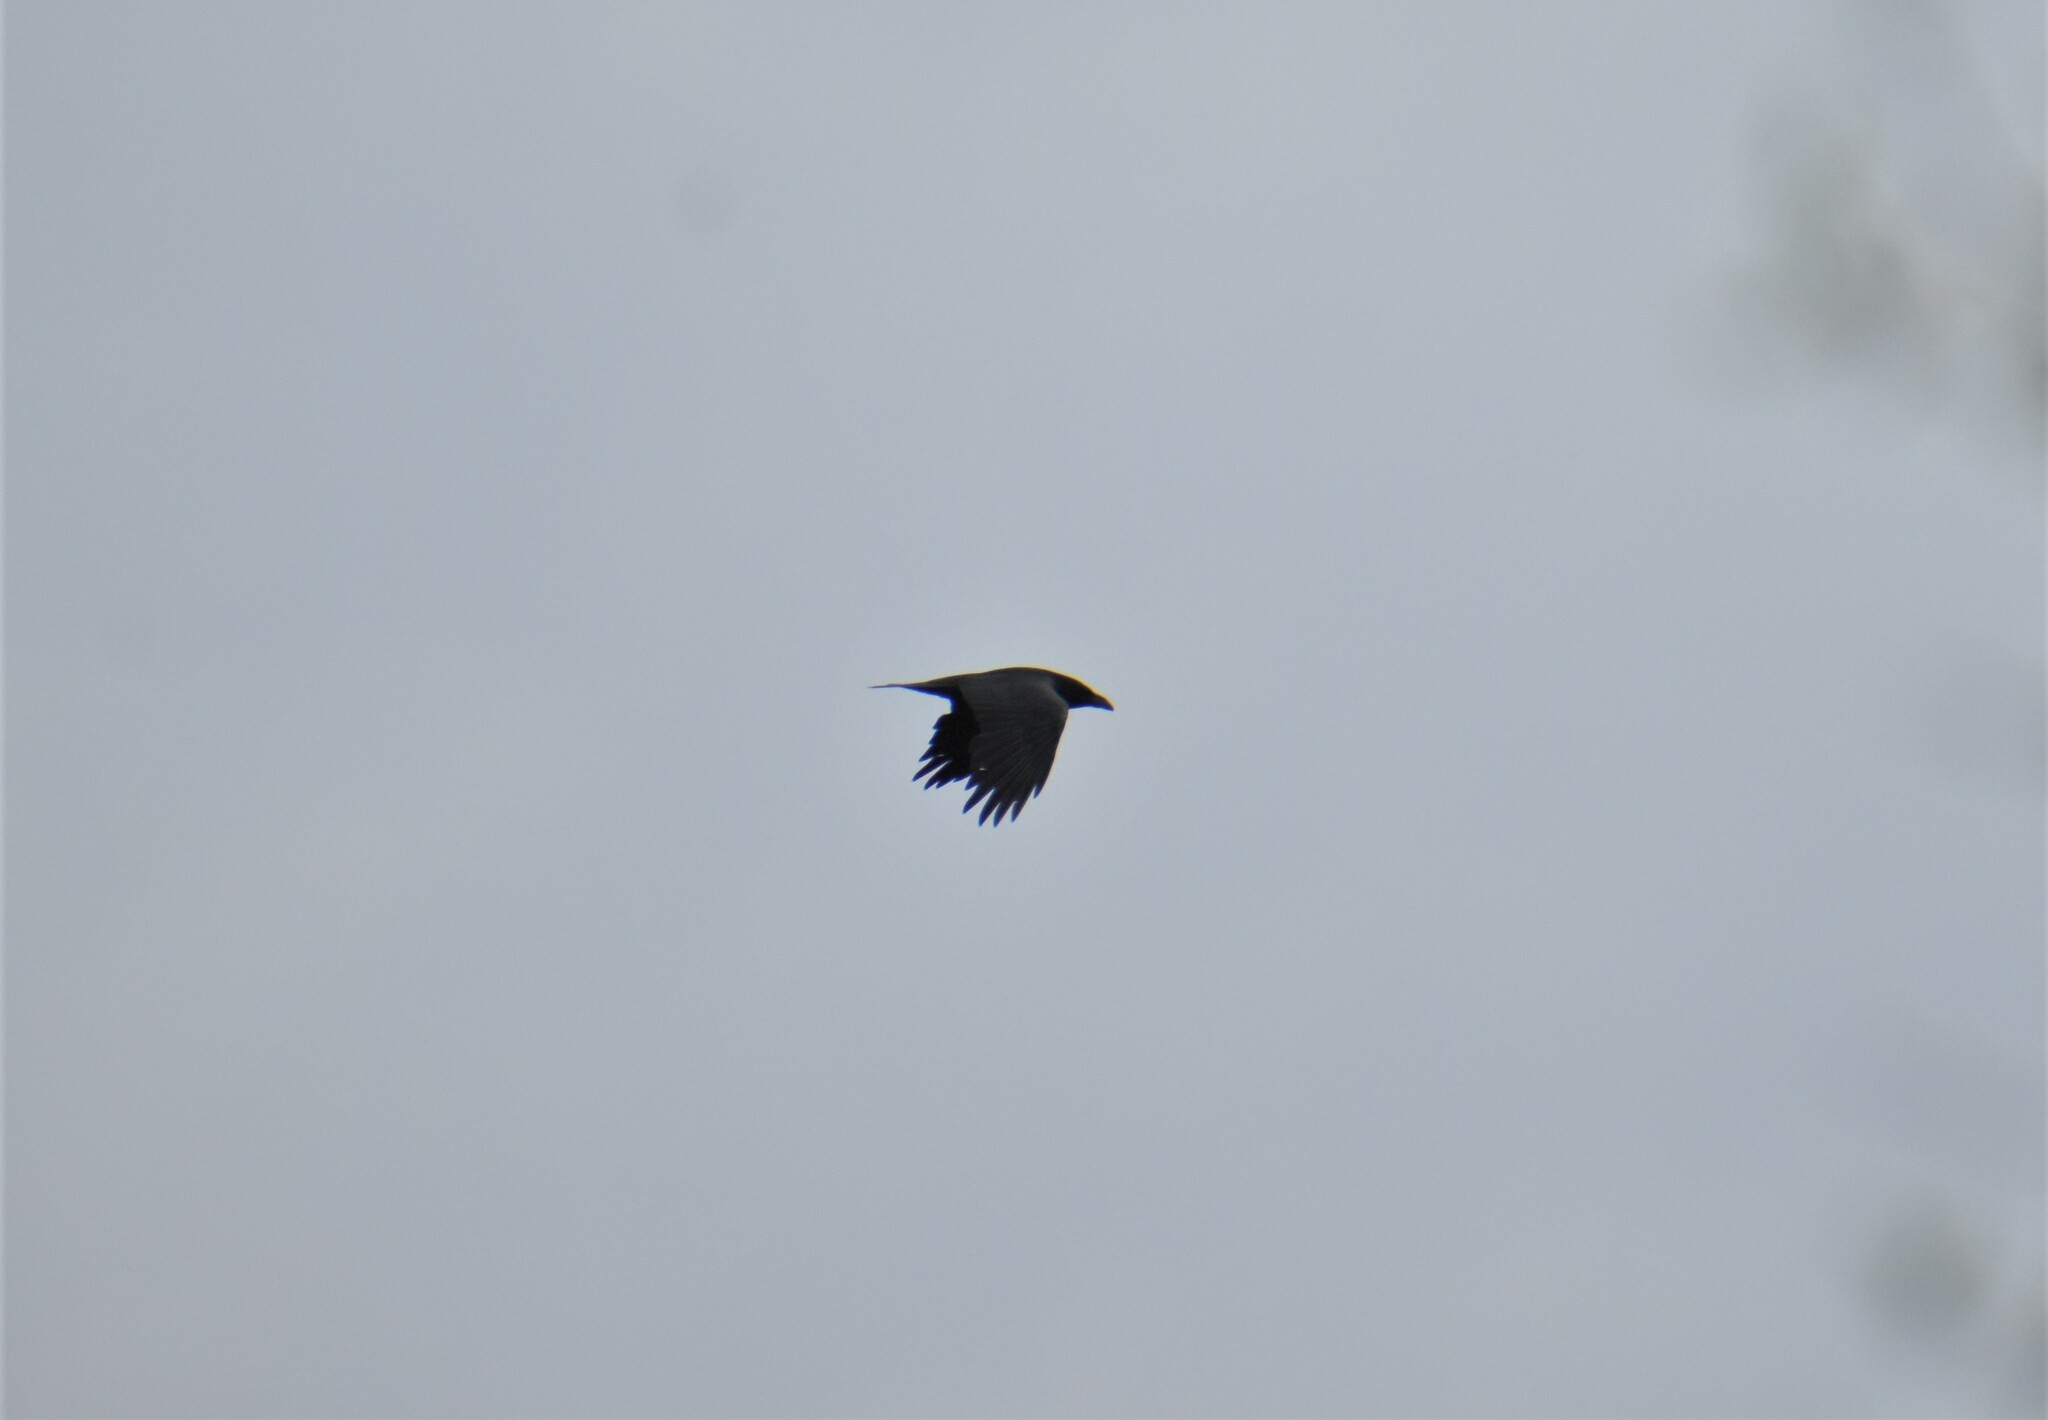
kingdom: Animalia
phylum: Chordata
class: Aves
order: Passeriformes
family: Corvidae
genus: Corvus
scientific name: Corvus corax
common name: Common raven
